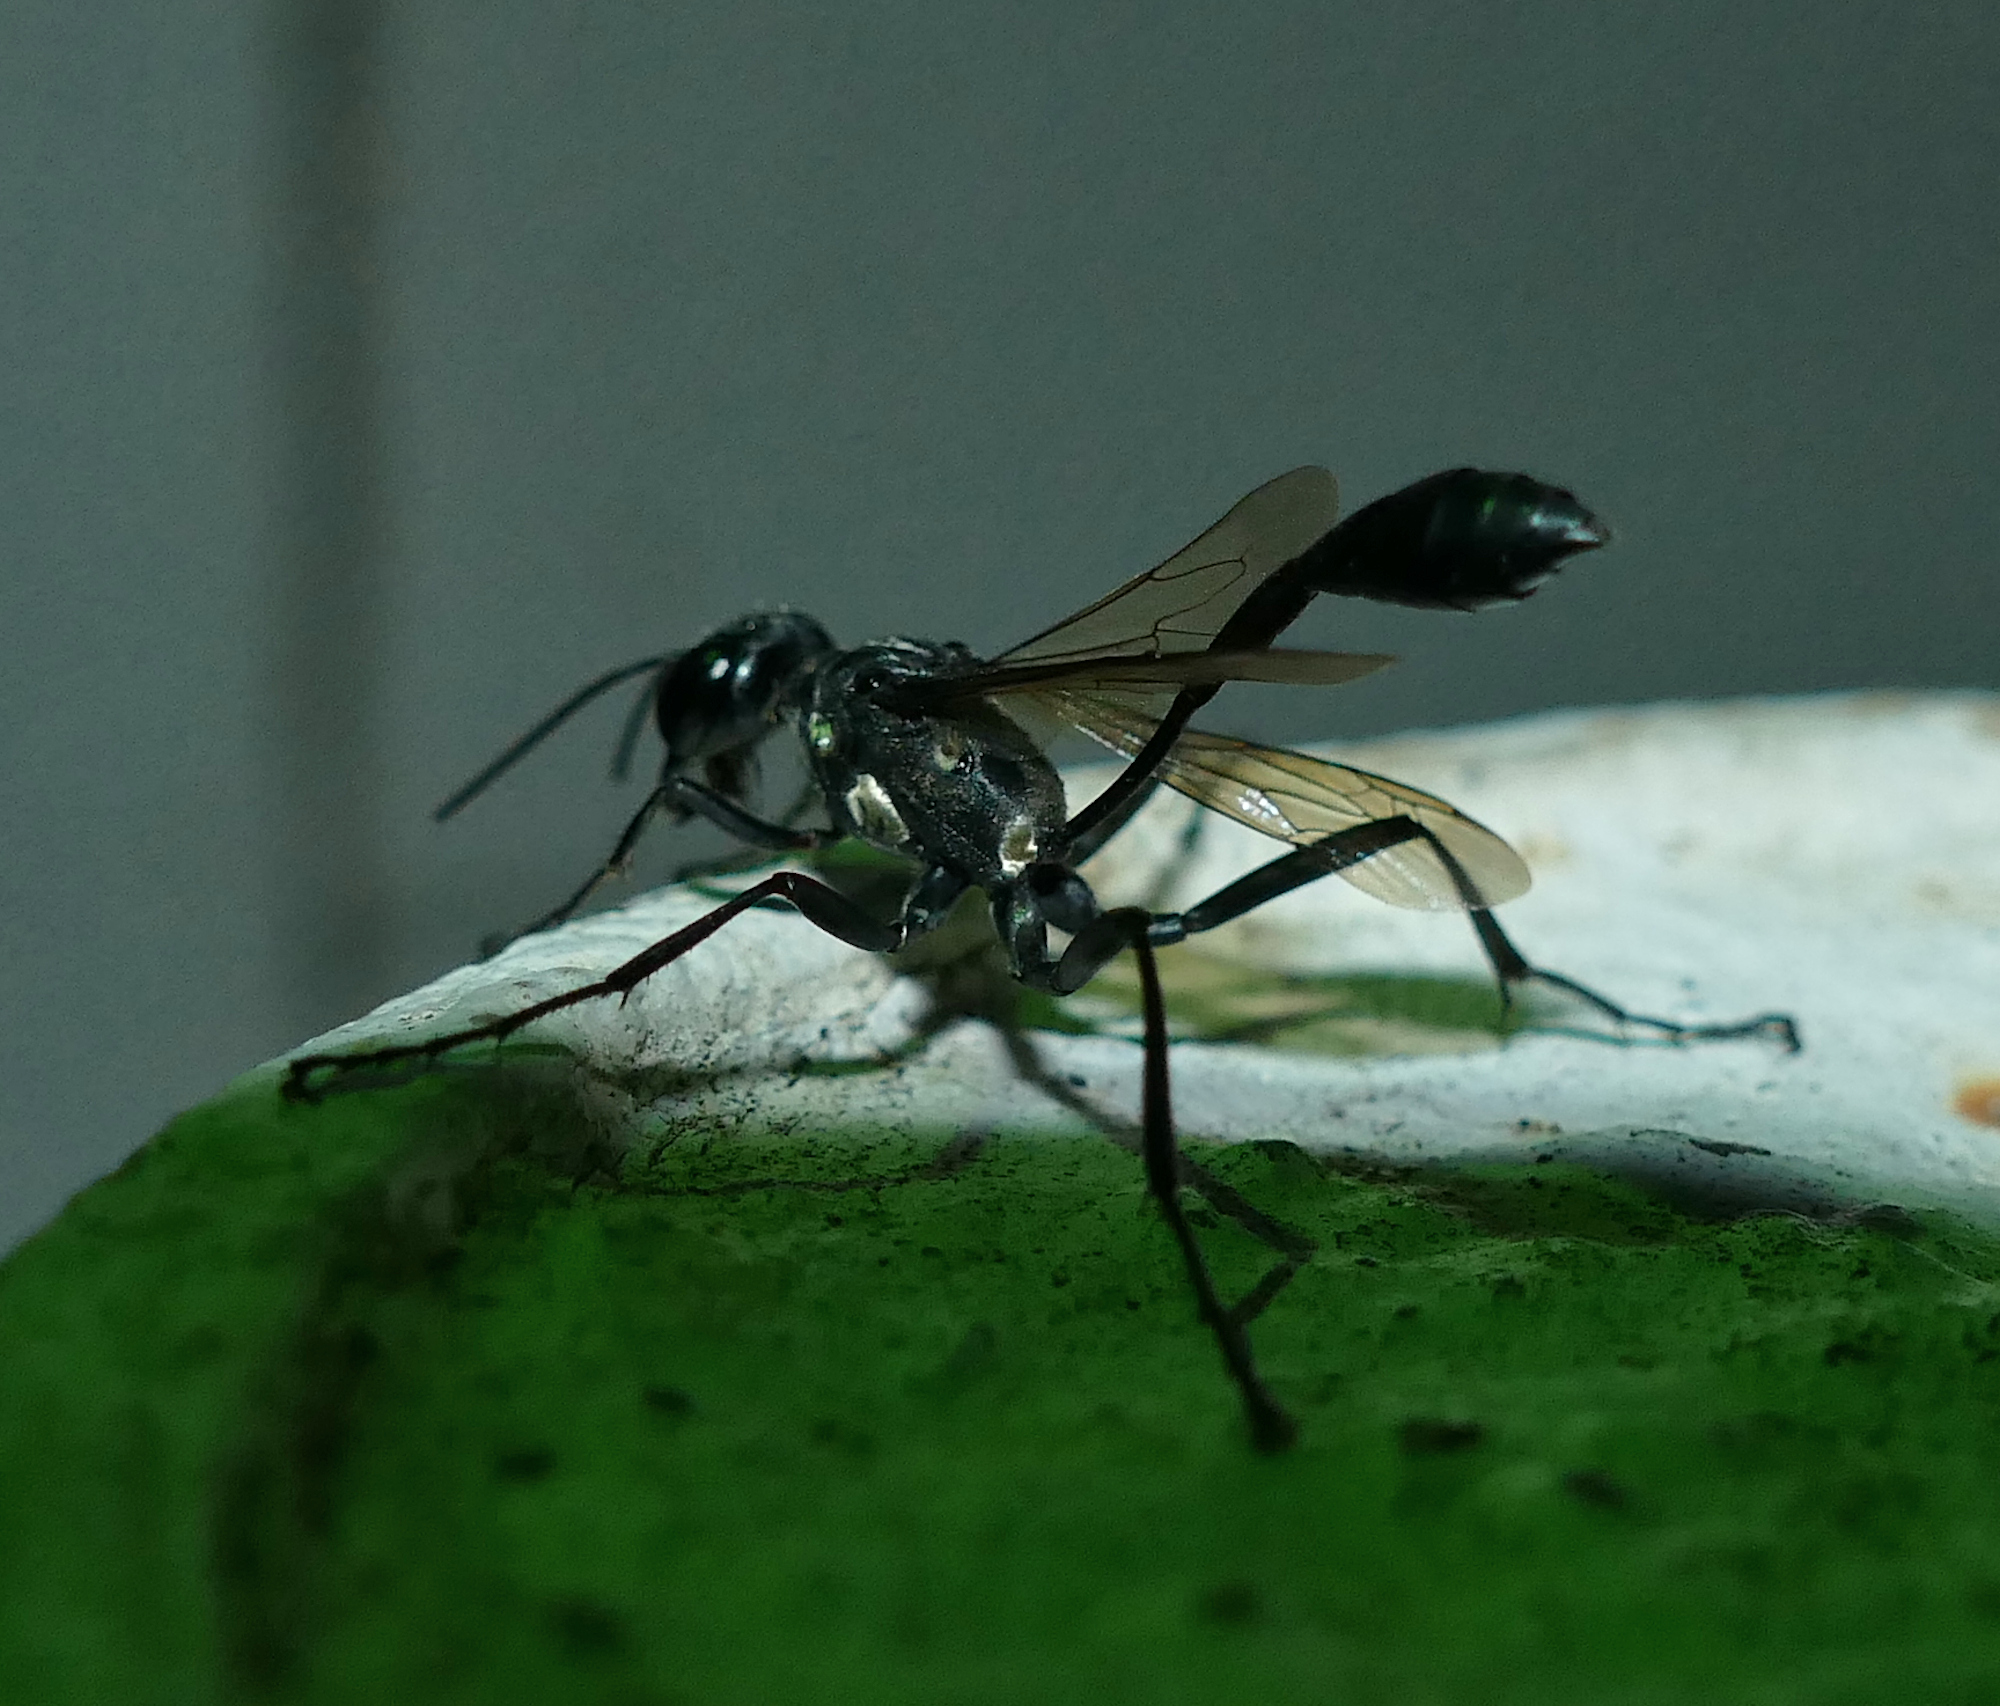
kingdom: Animalia
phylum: Arthropoda
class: Insecta
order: Hymenoptera
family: Sphecidae
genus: Eremnophila
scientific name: Eremnophila aureonotata
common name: Gold-marked thread-waisted wasp
